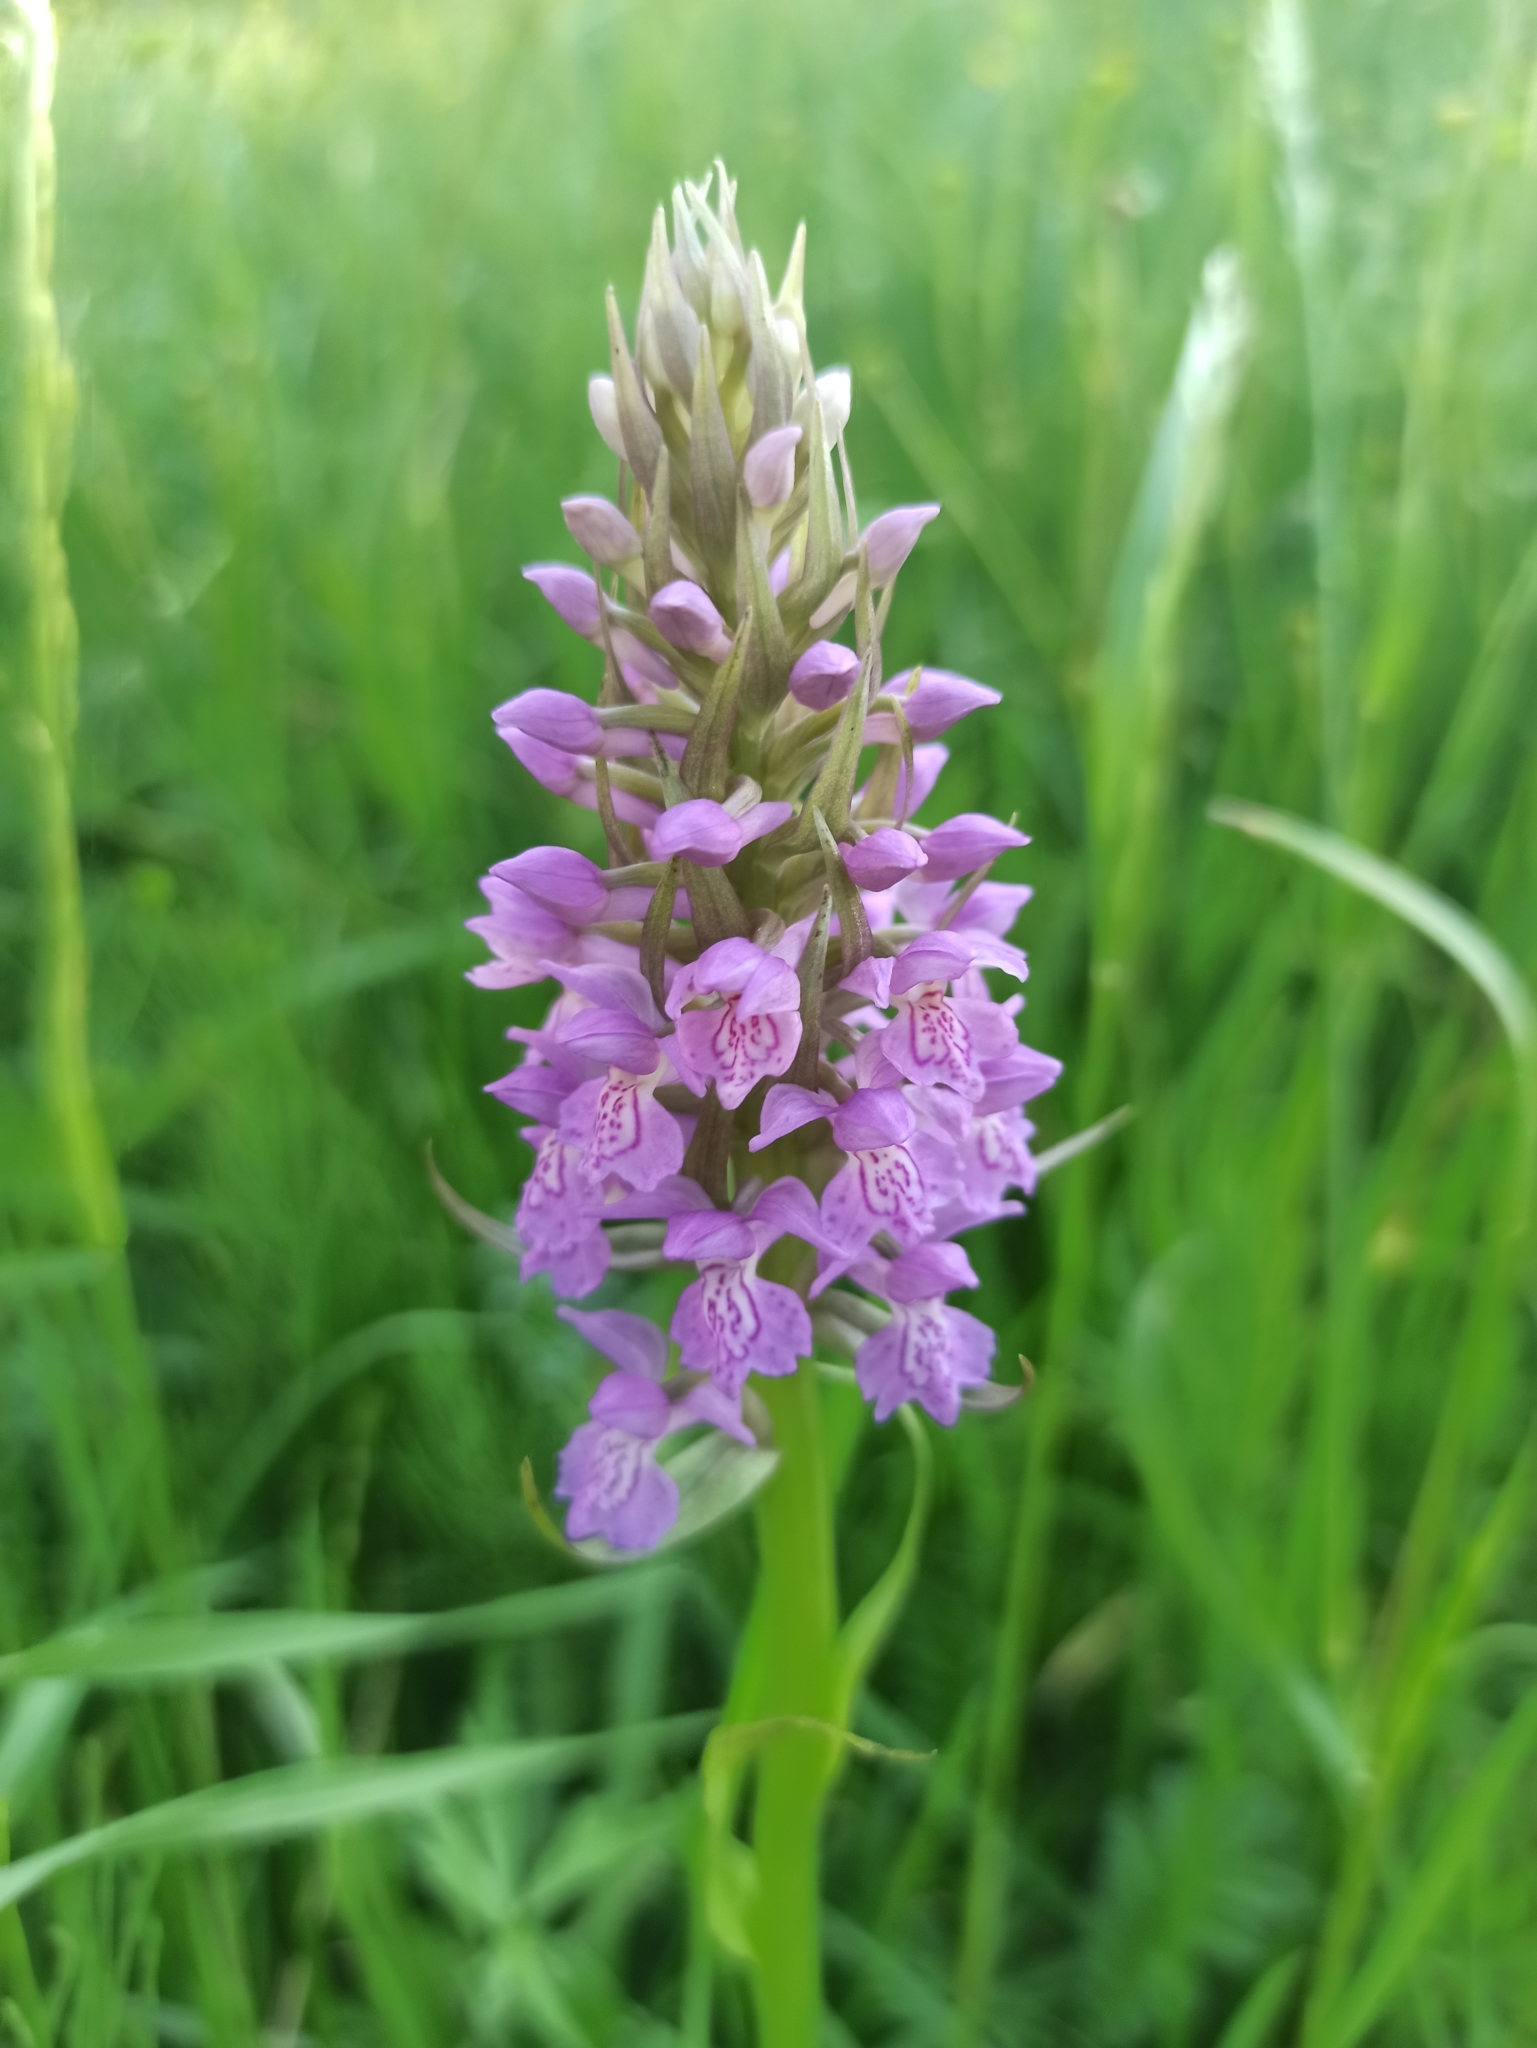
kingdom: Plantae
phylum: Tracheophyta
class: Liliopsida
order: Asparagales
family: Orchidaceae
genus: Dactylorhiza
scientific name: Dactylorhiza majalis
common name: Marsh orchid
